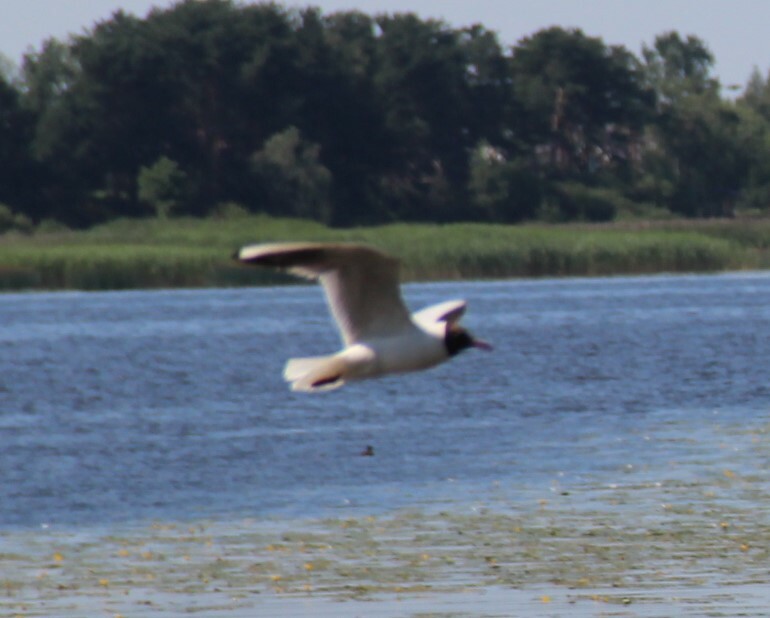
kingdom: Animalia
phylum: Chordata
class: Aves
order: Charadriiformes
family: Laridae
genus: Chroicocephalus
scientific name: Chroicocephalus ridibundus
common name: Black-headed gull
